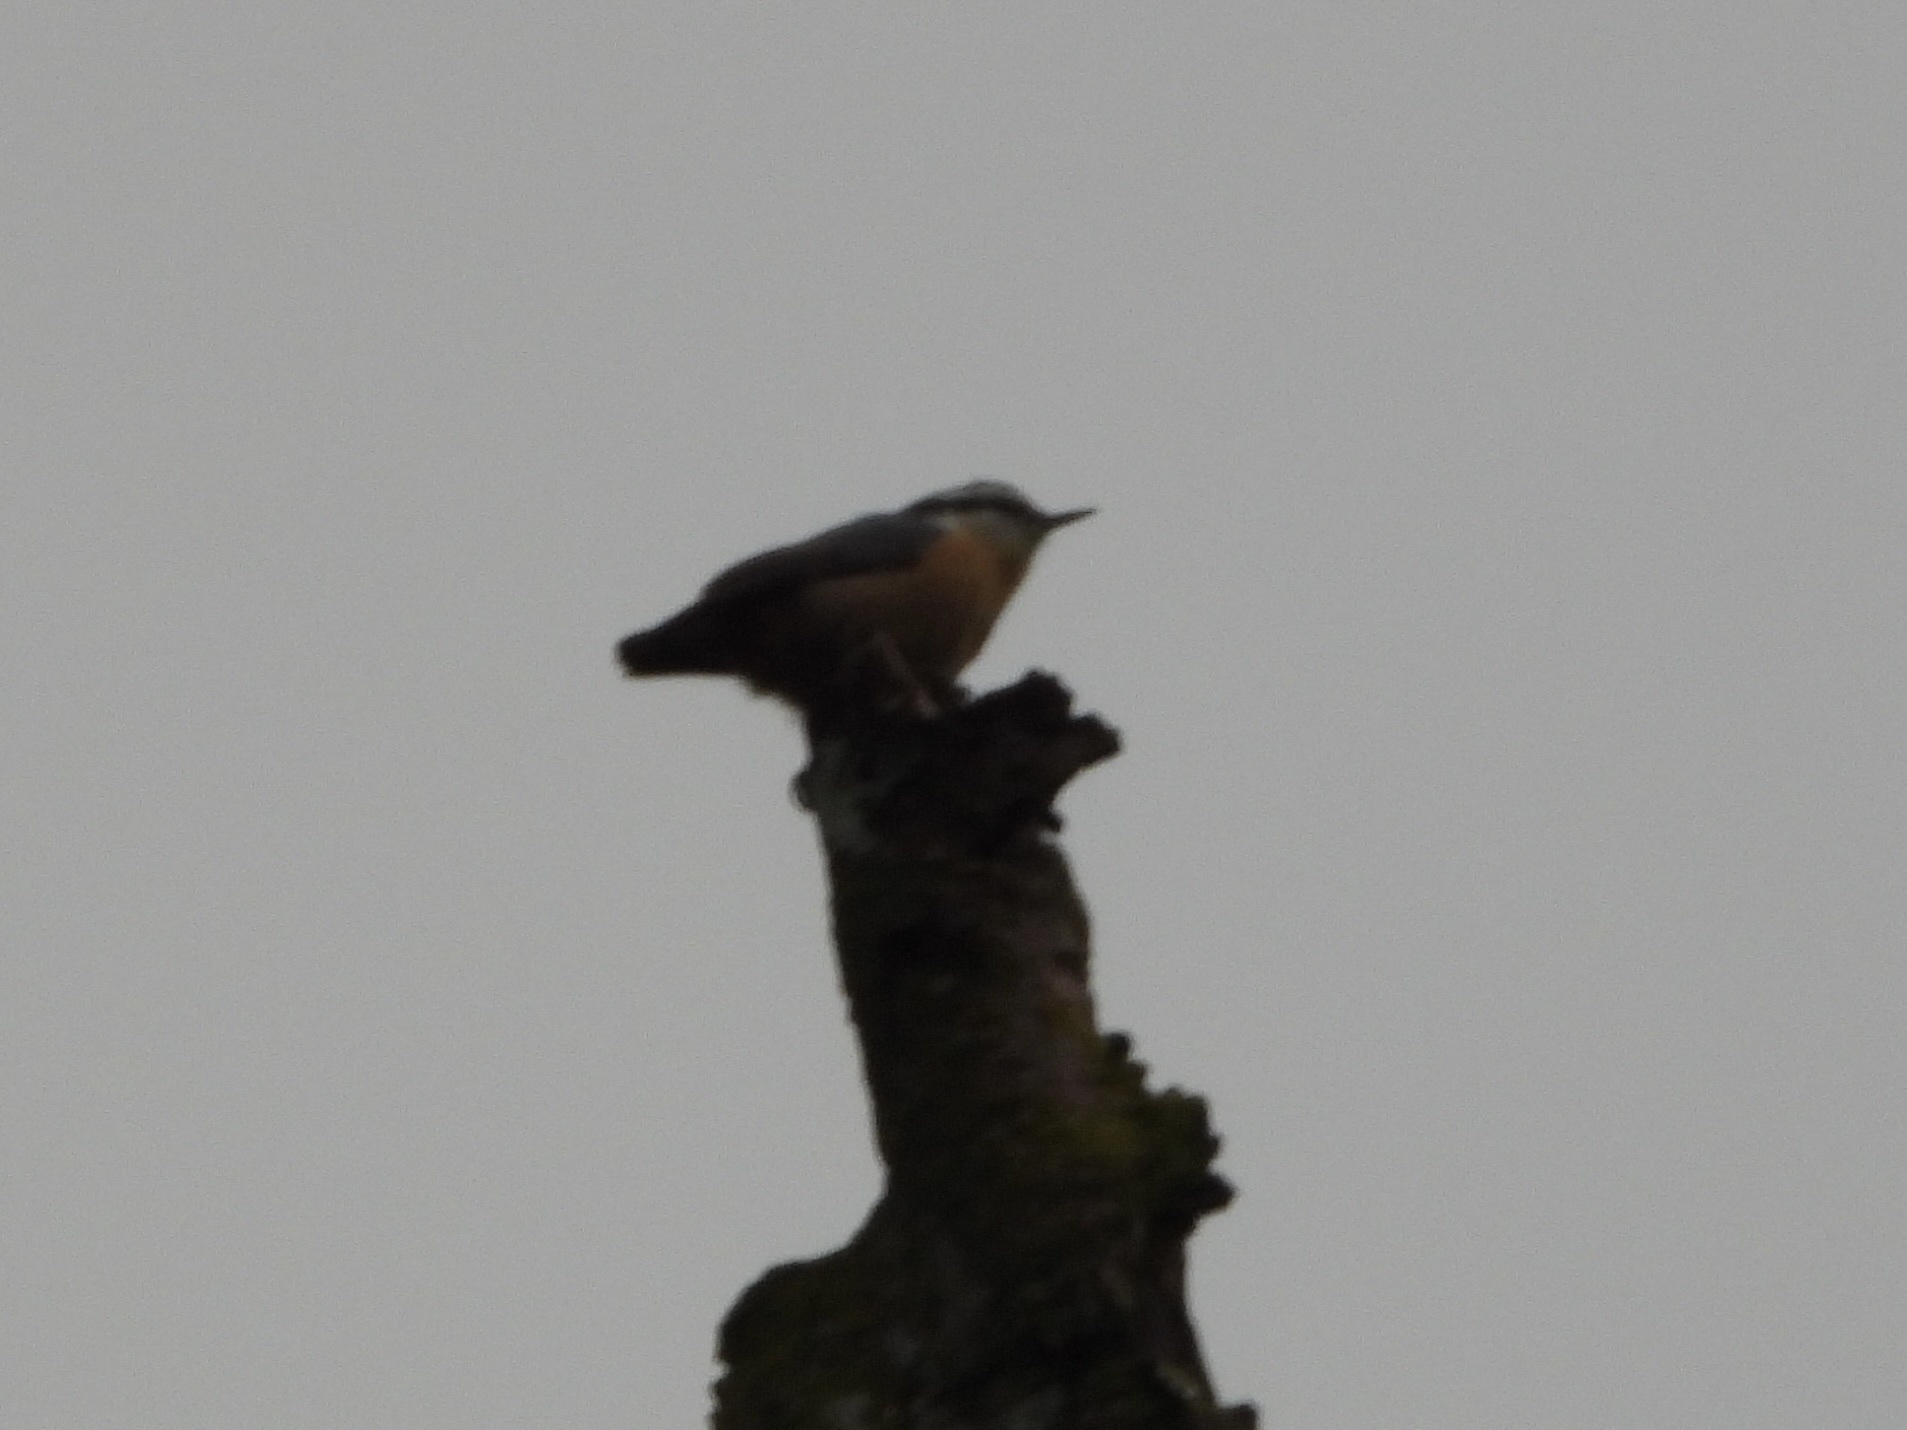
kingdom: Animalia
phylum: Chordata
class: Aves
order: Passeriformes
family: Sittidae
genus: Sitta
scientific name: Sitta canadensis
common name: Red-breasted nuthatch
